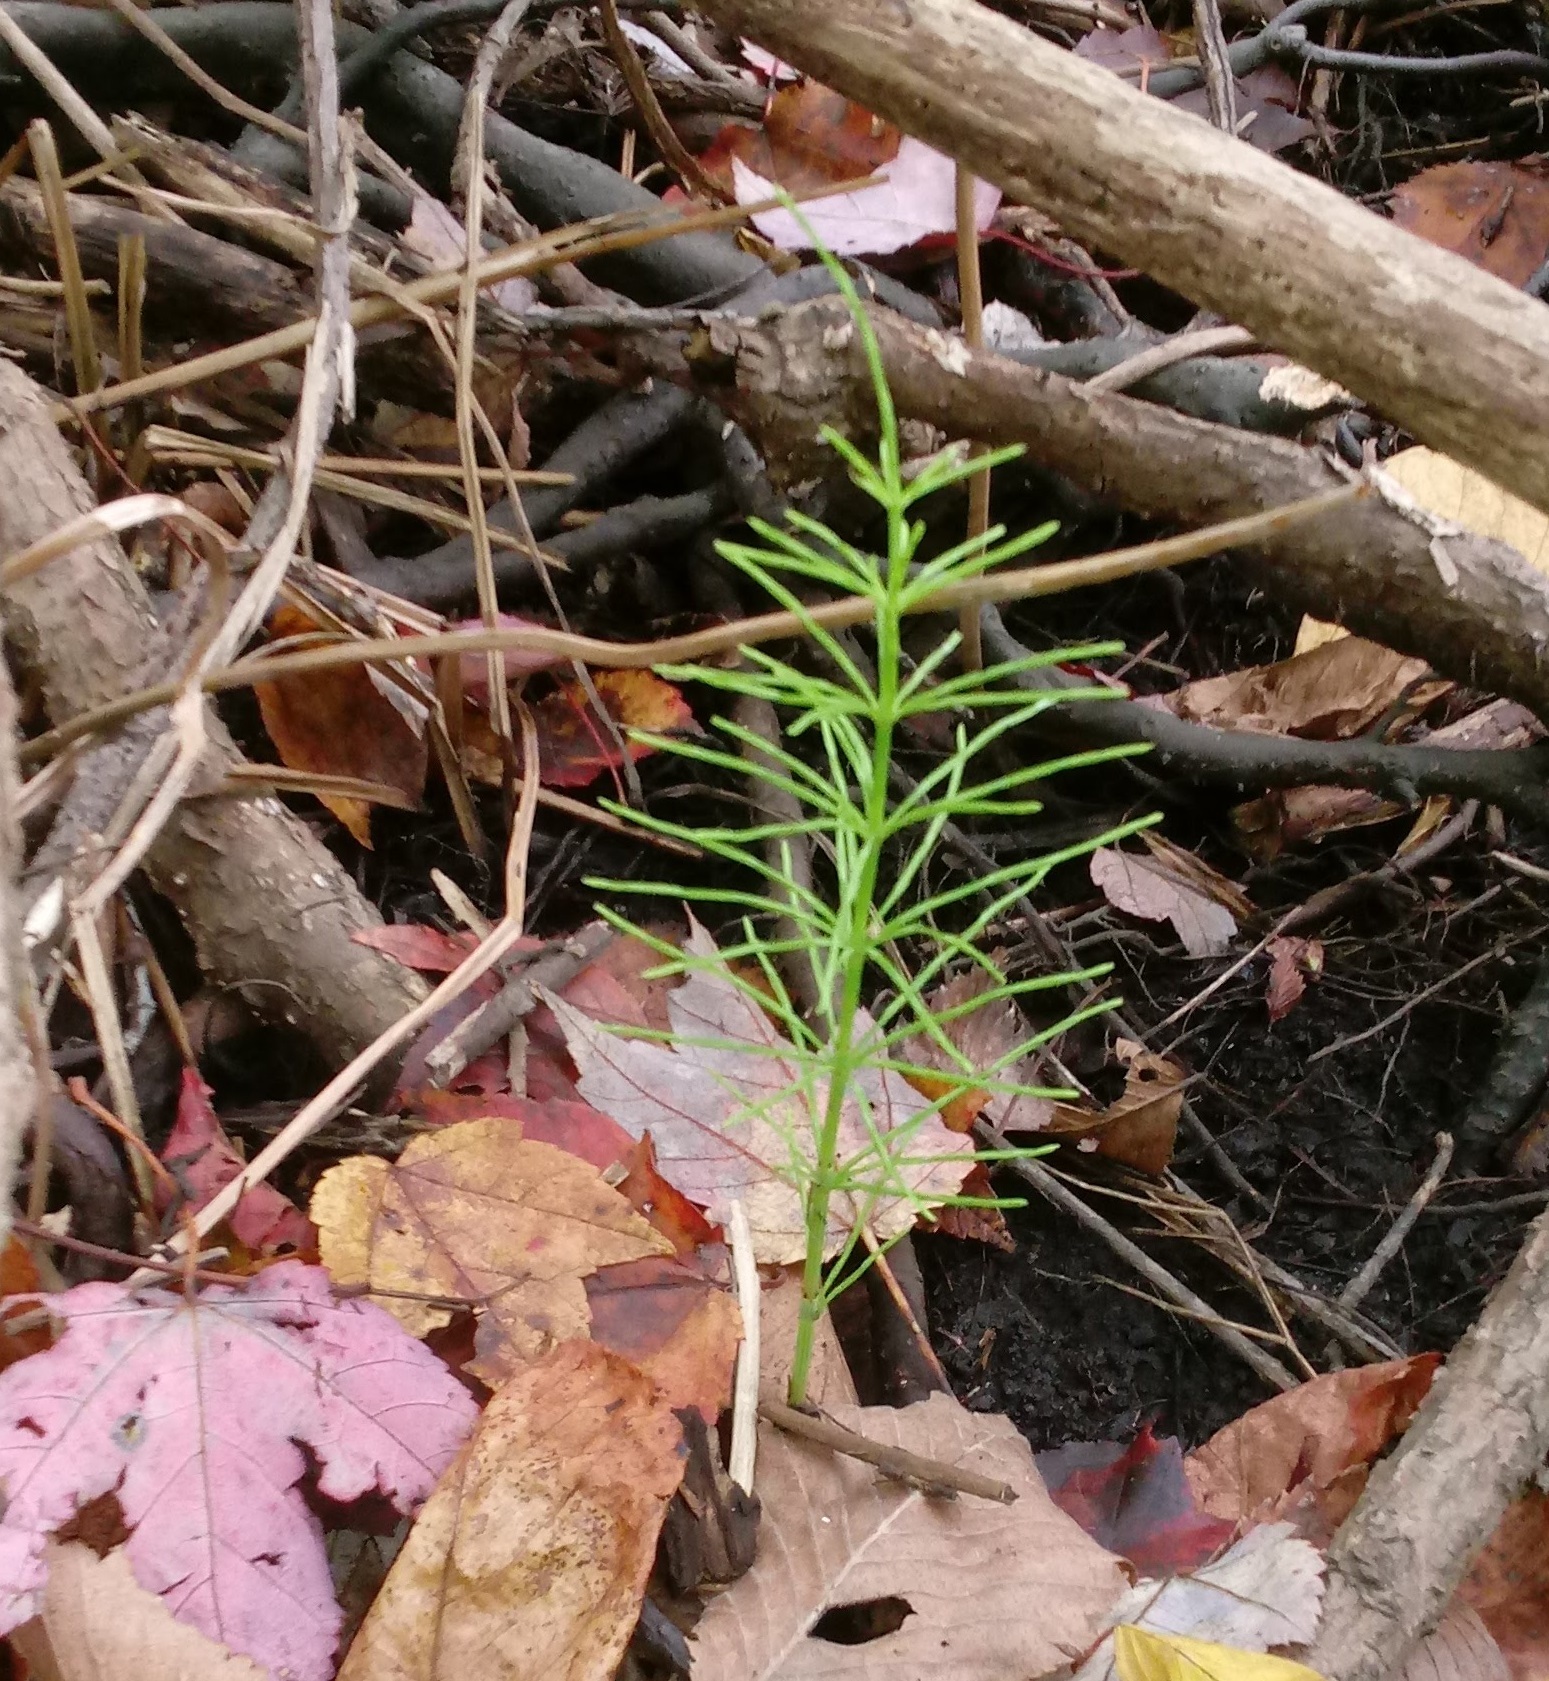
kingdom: Plantae
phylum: Tracheophyta
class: Polypodiopsida
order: Equisetales
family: Equisetaceae
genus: Equisetum
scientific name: Equisetum arvense
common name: Field horsetail
